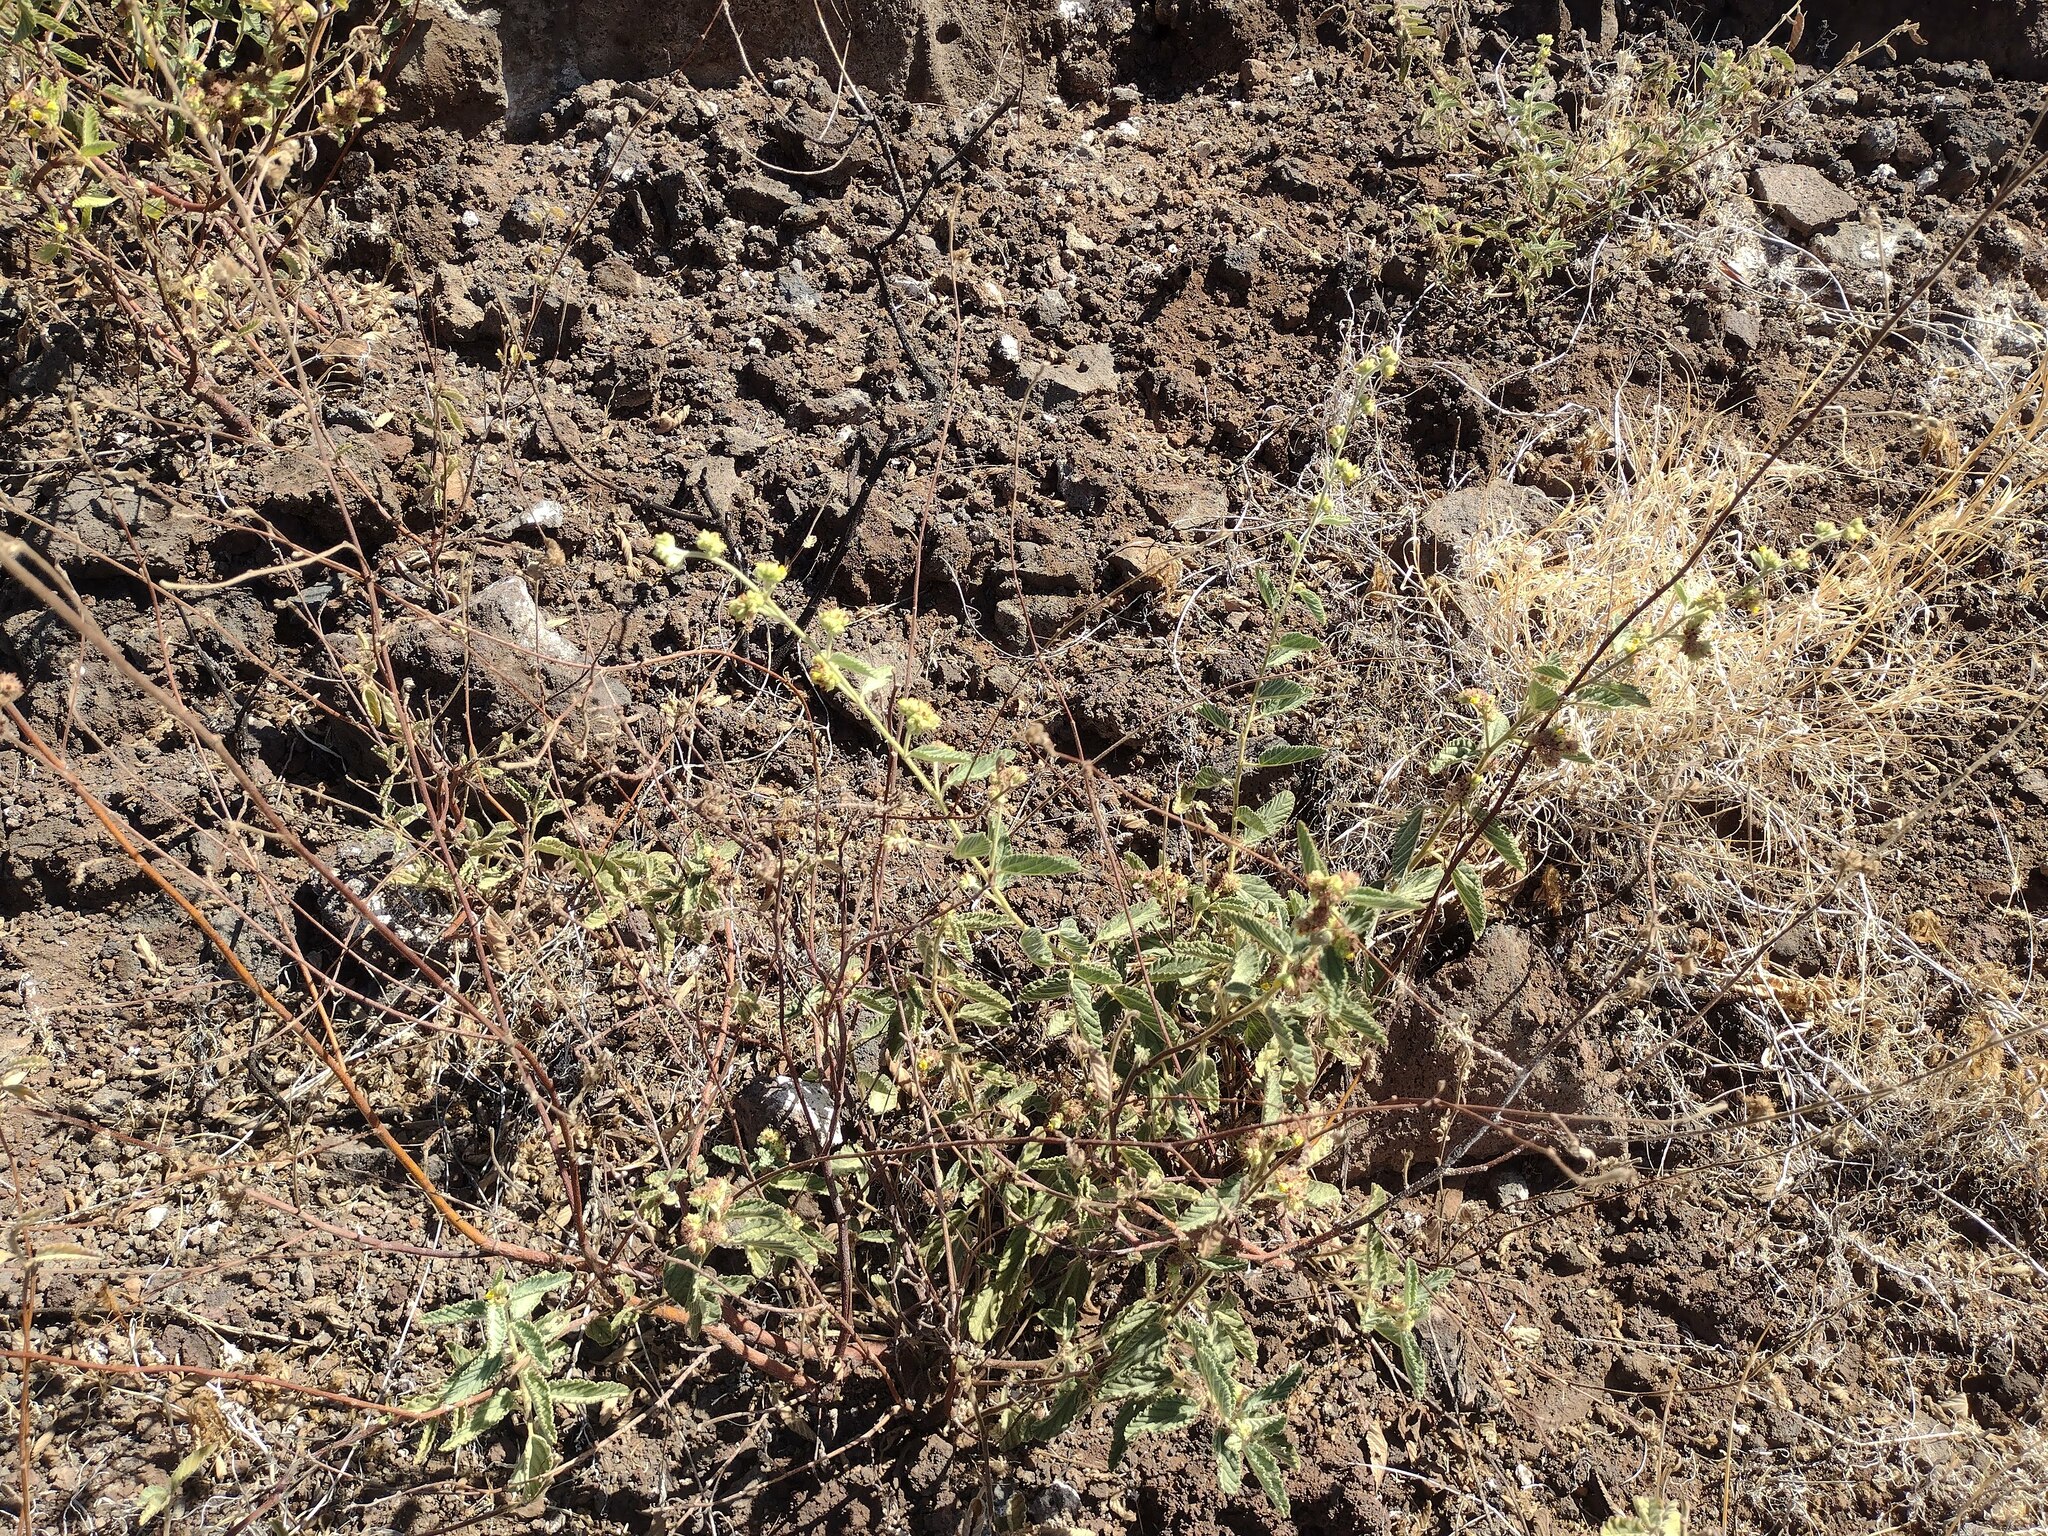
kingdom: Plantae
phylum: Tracheophyta
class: Magnoliopsida
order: Malvales
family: Malvaceae
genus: Waltheria
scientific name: Waltheria indica
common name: Leather-coat
